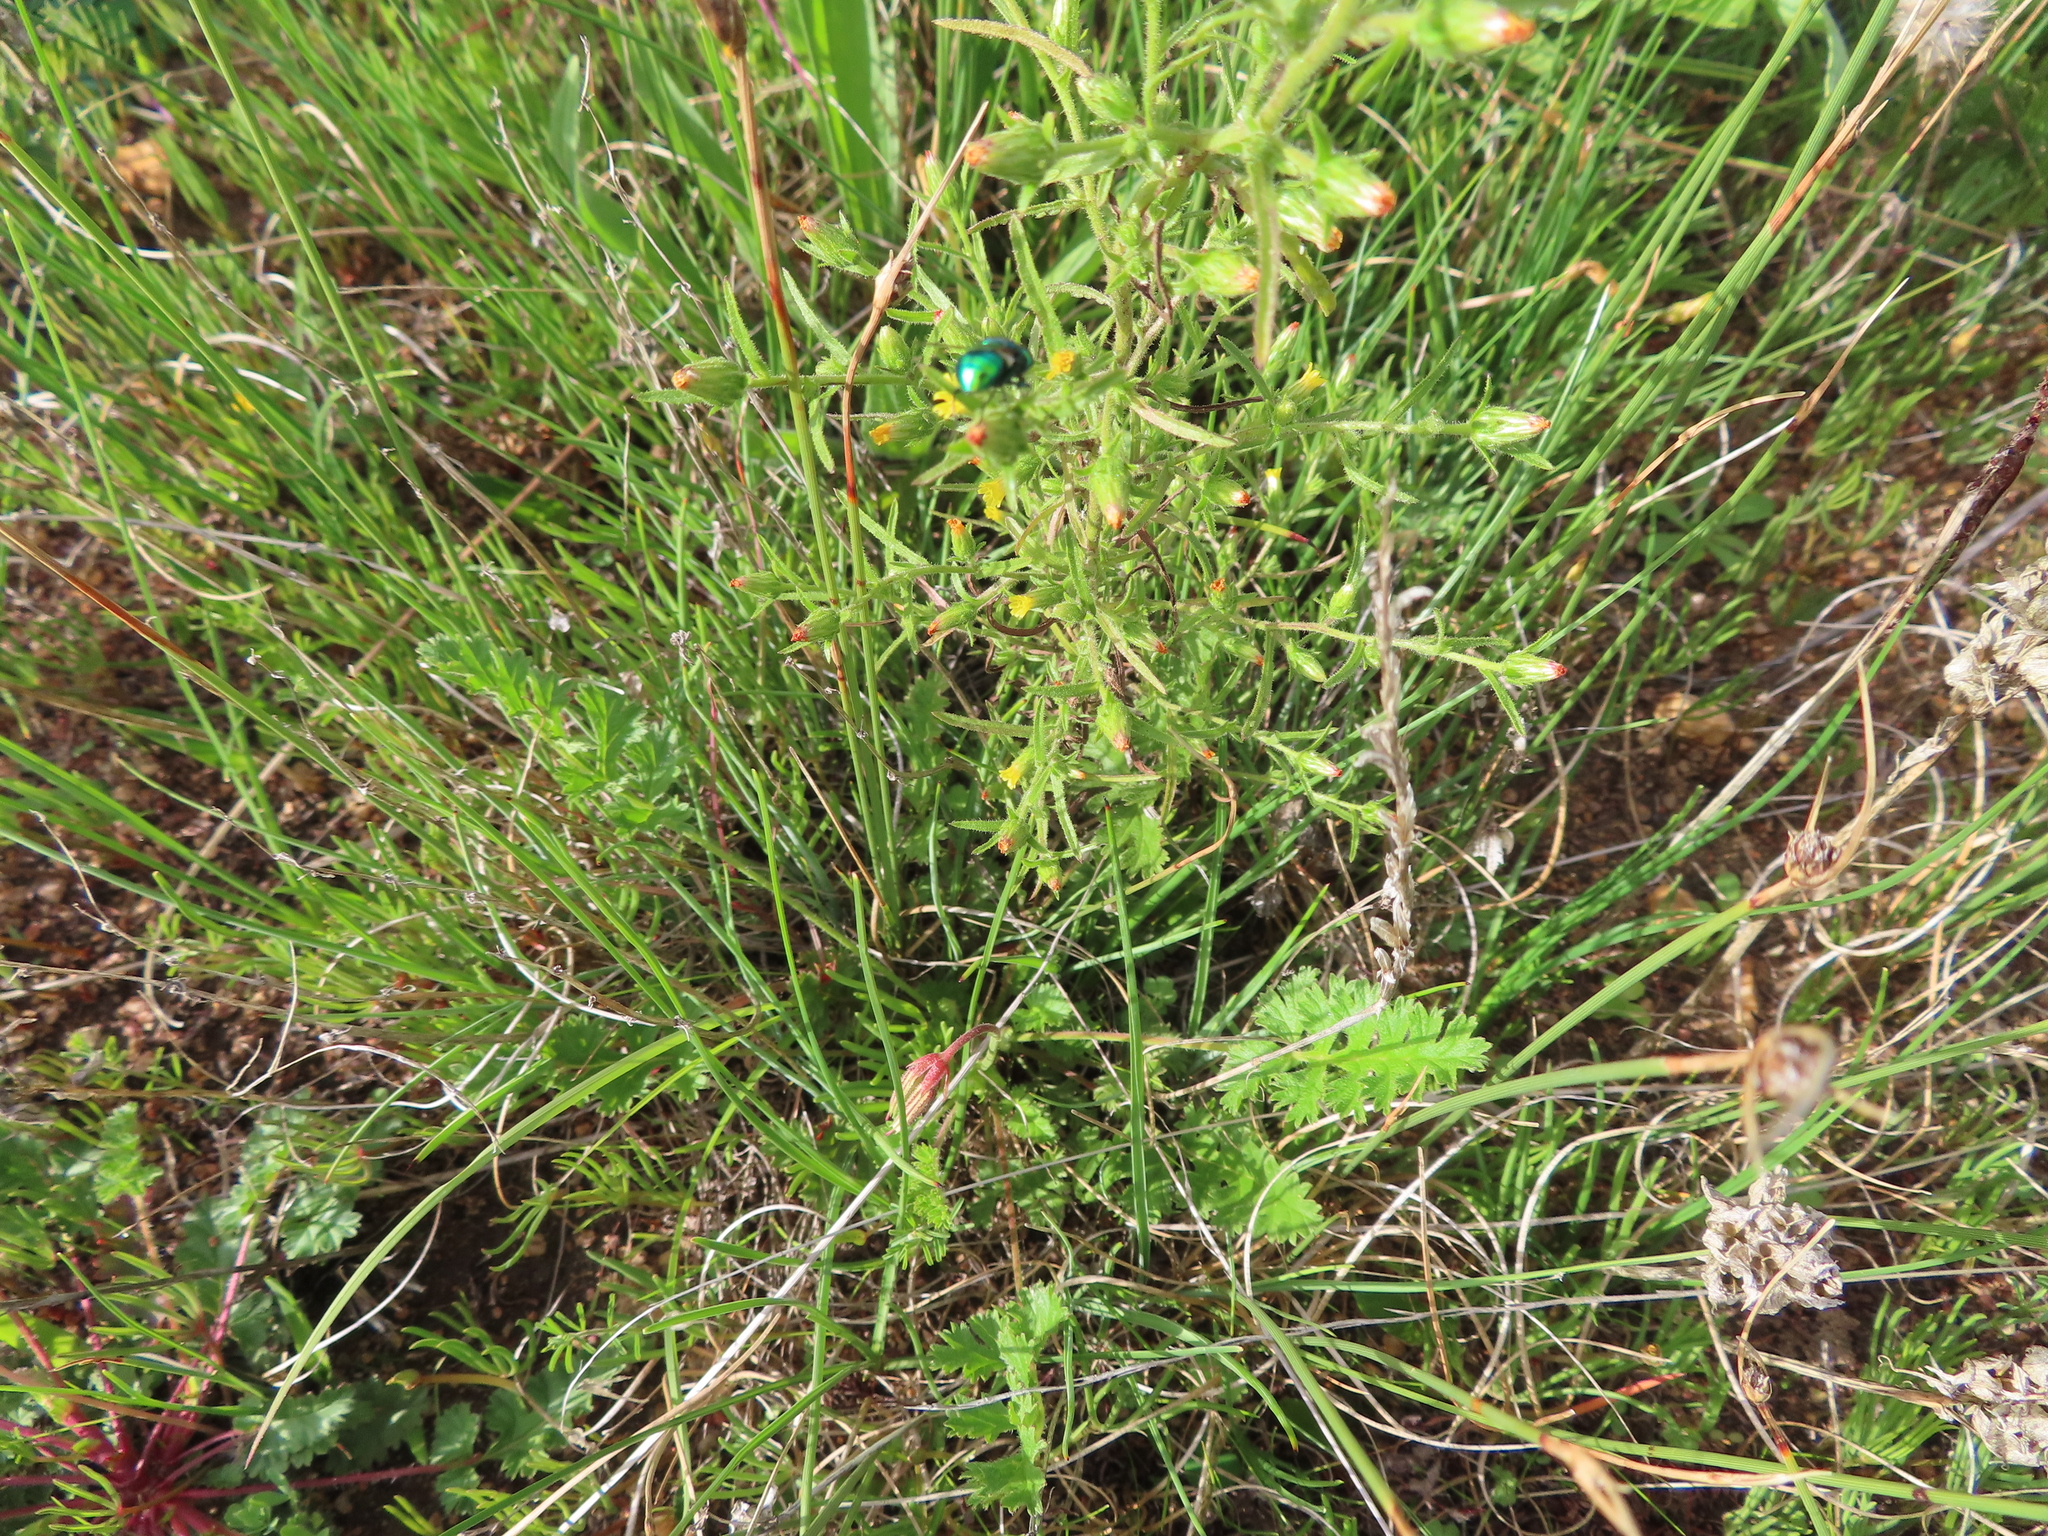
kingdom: Plantae
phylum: Tracheophyta
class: Magnoliopsida
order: Malvales
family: Thymelaeaceae
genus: Gnidia
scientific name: Gnidia laxa
